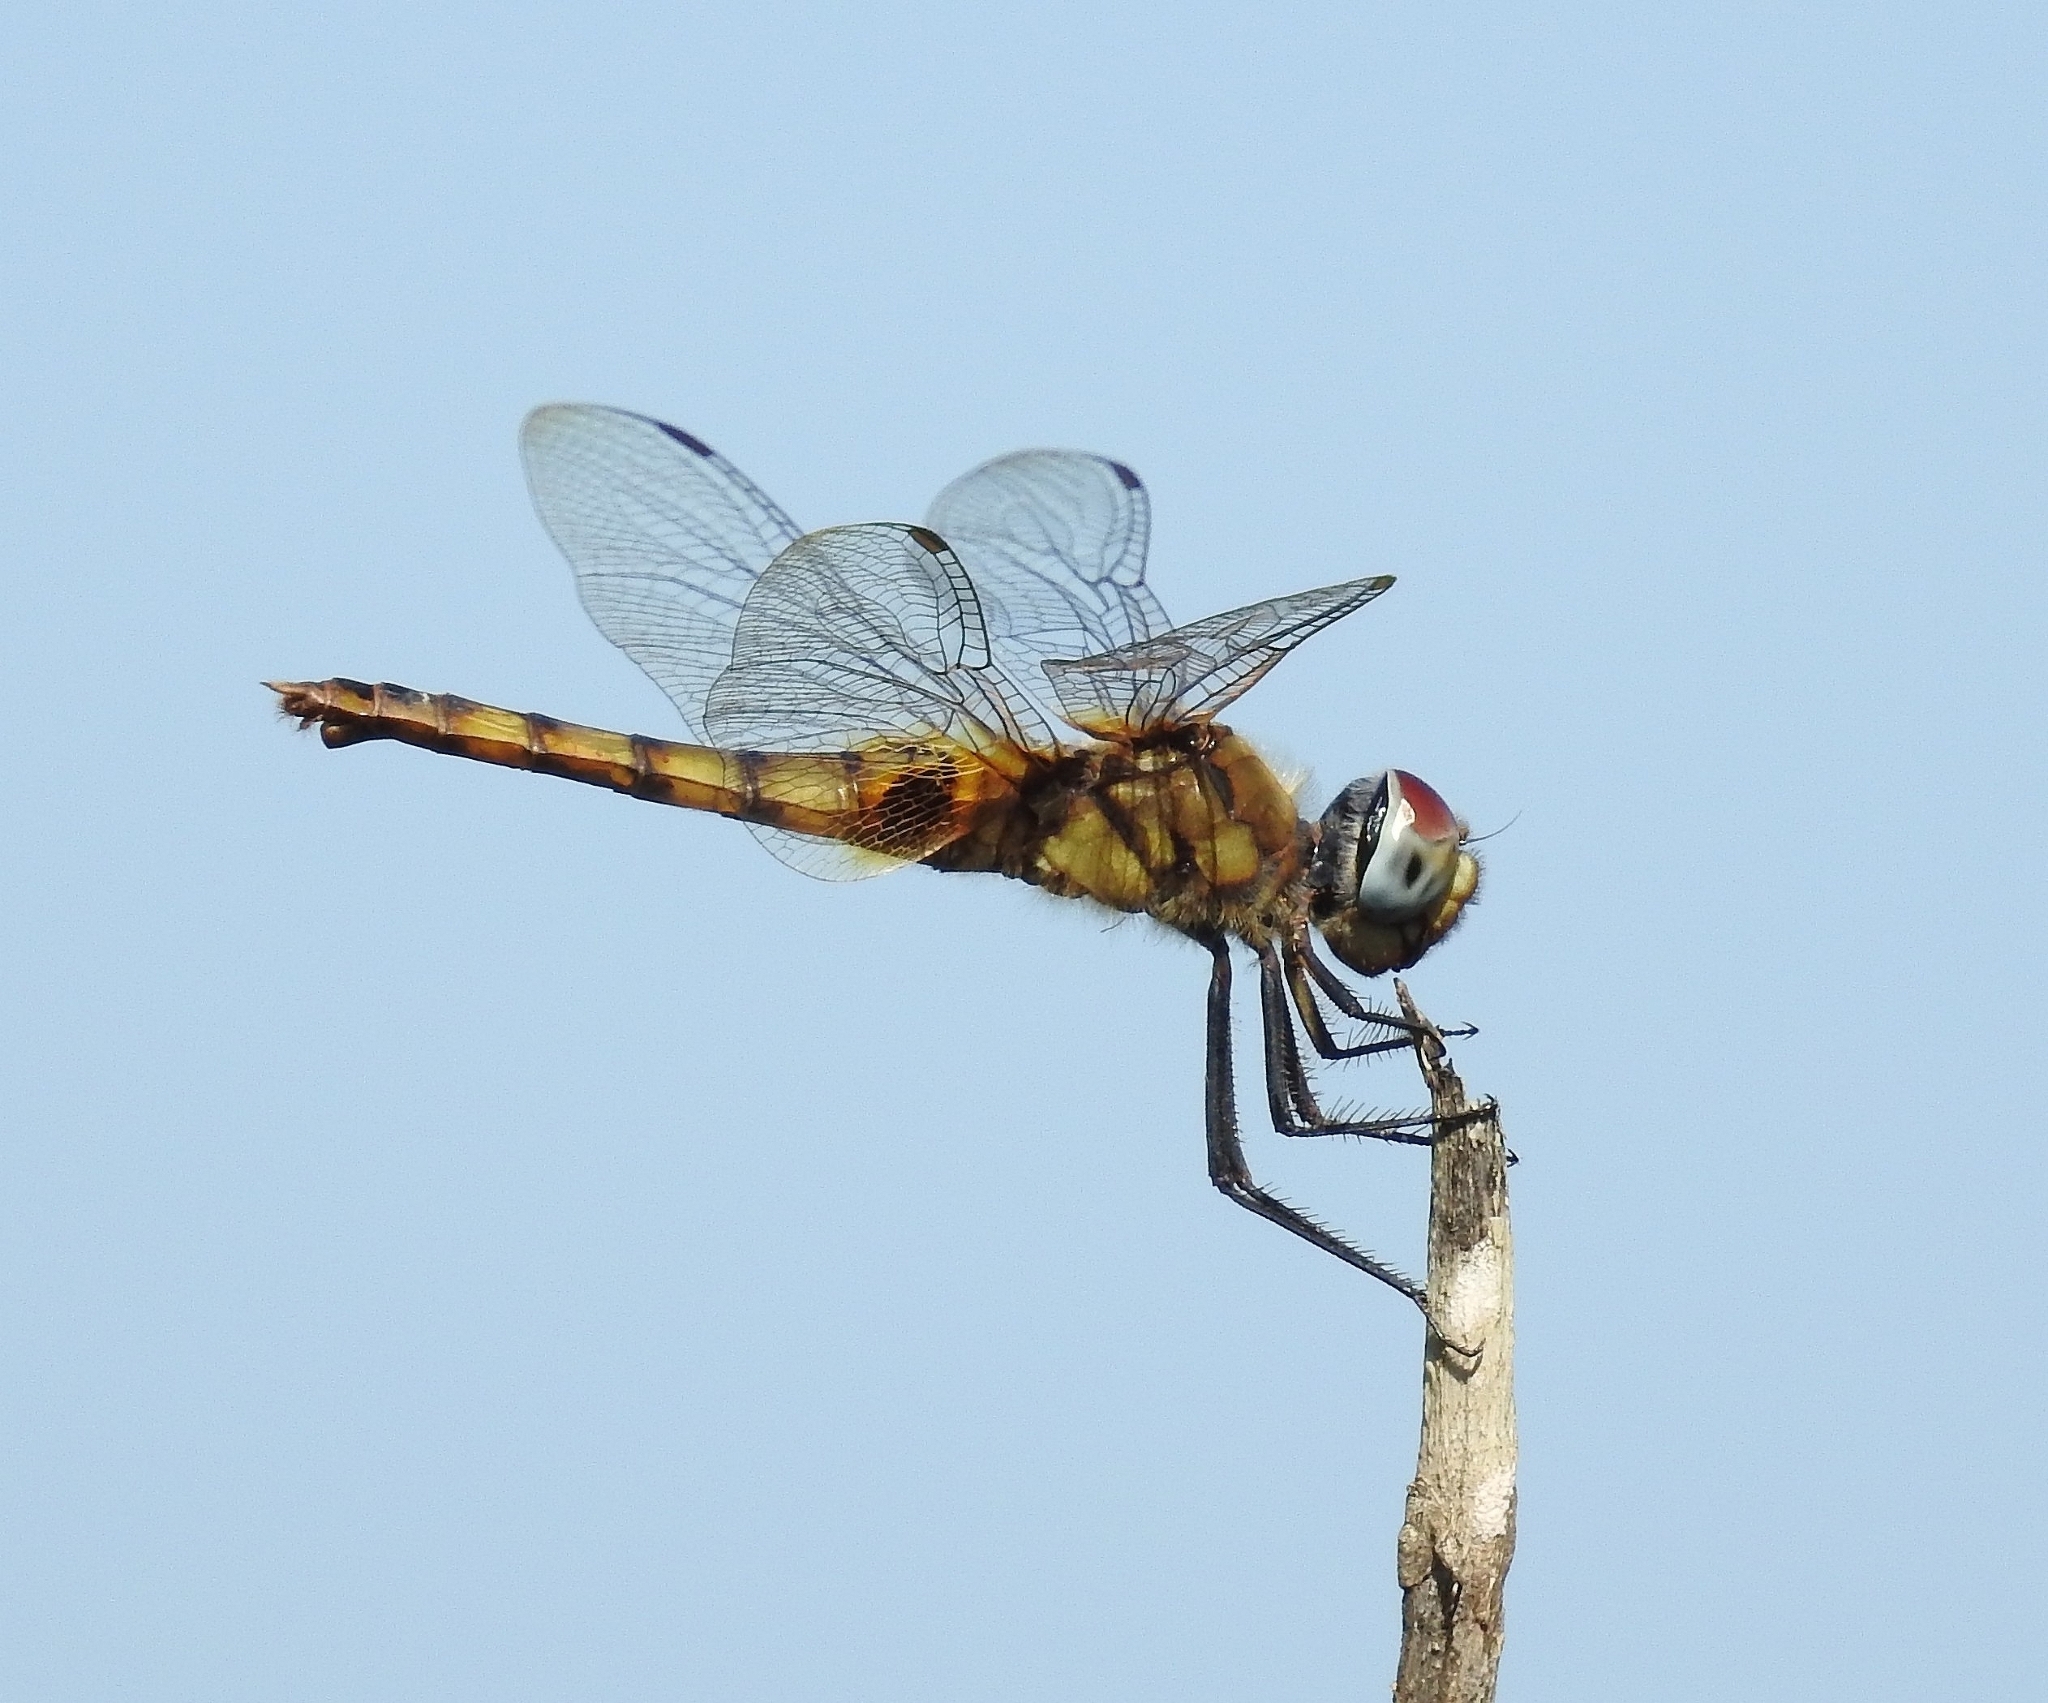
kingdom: Animalia
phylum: Arthropoda
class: Insecta
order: Odonata
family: Libellulidae
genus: Urothemis
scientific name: Urothemis signata
